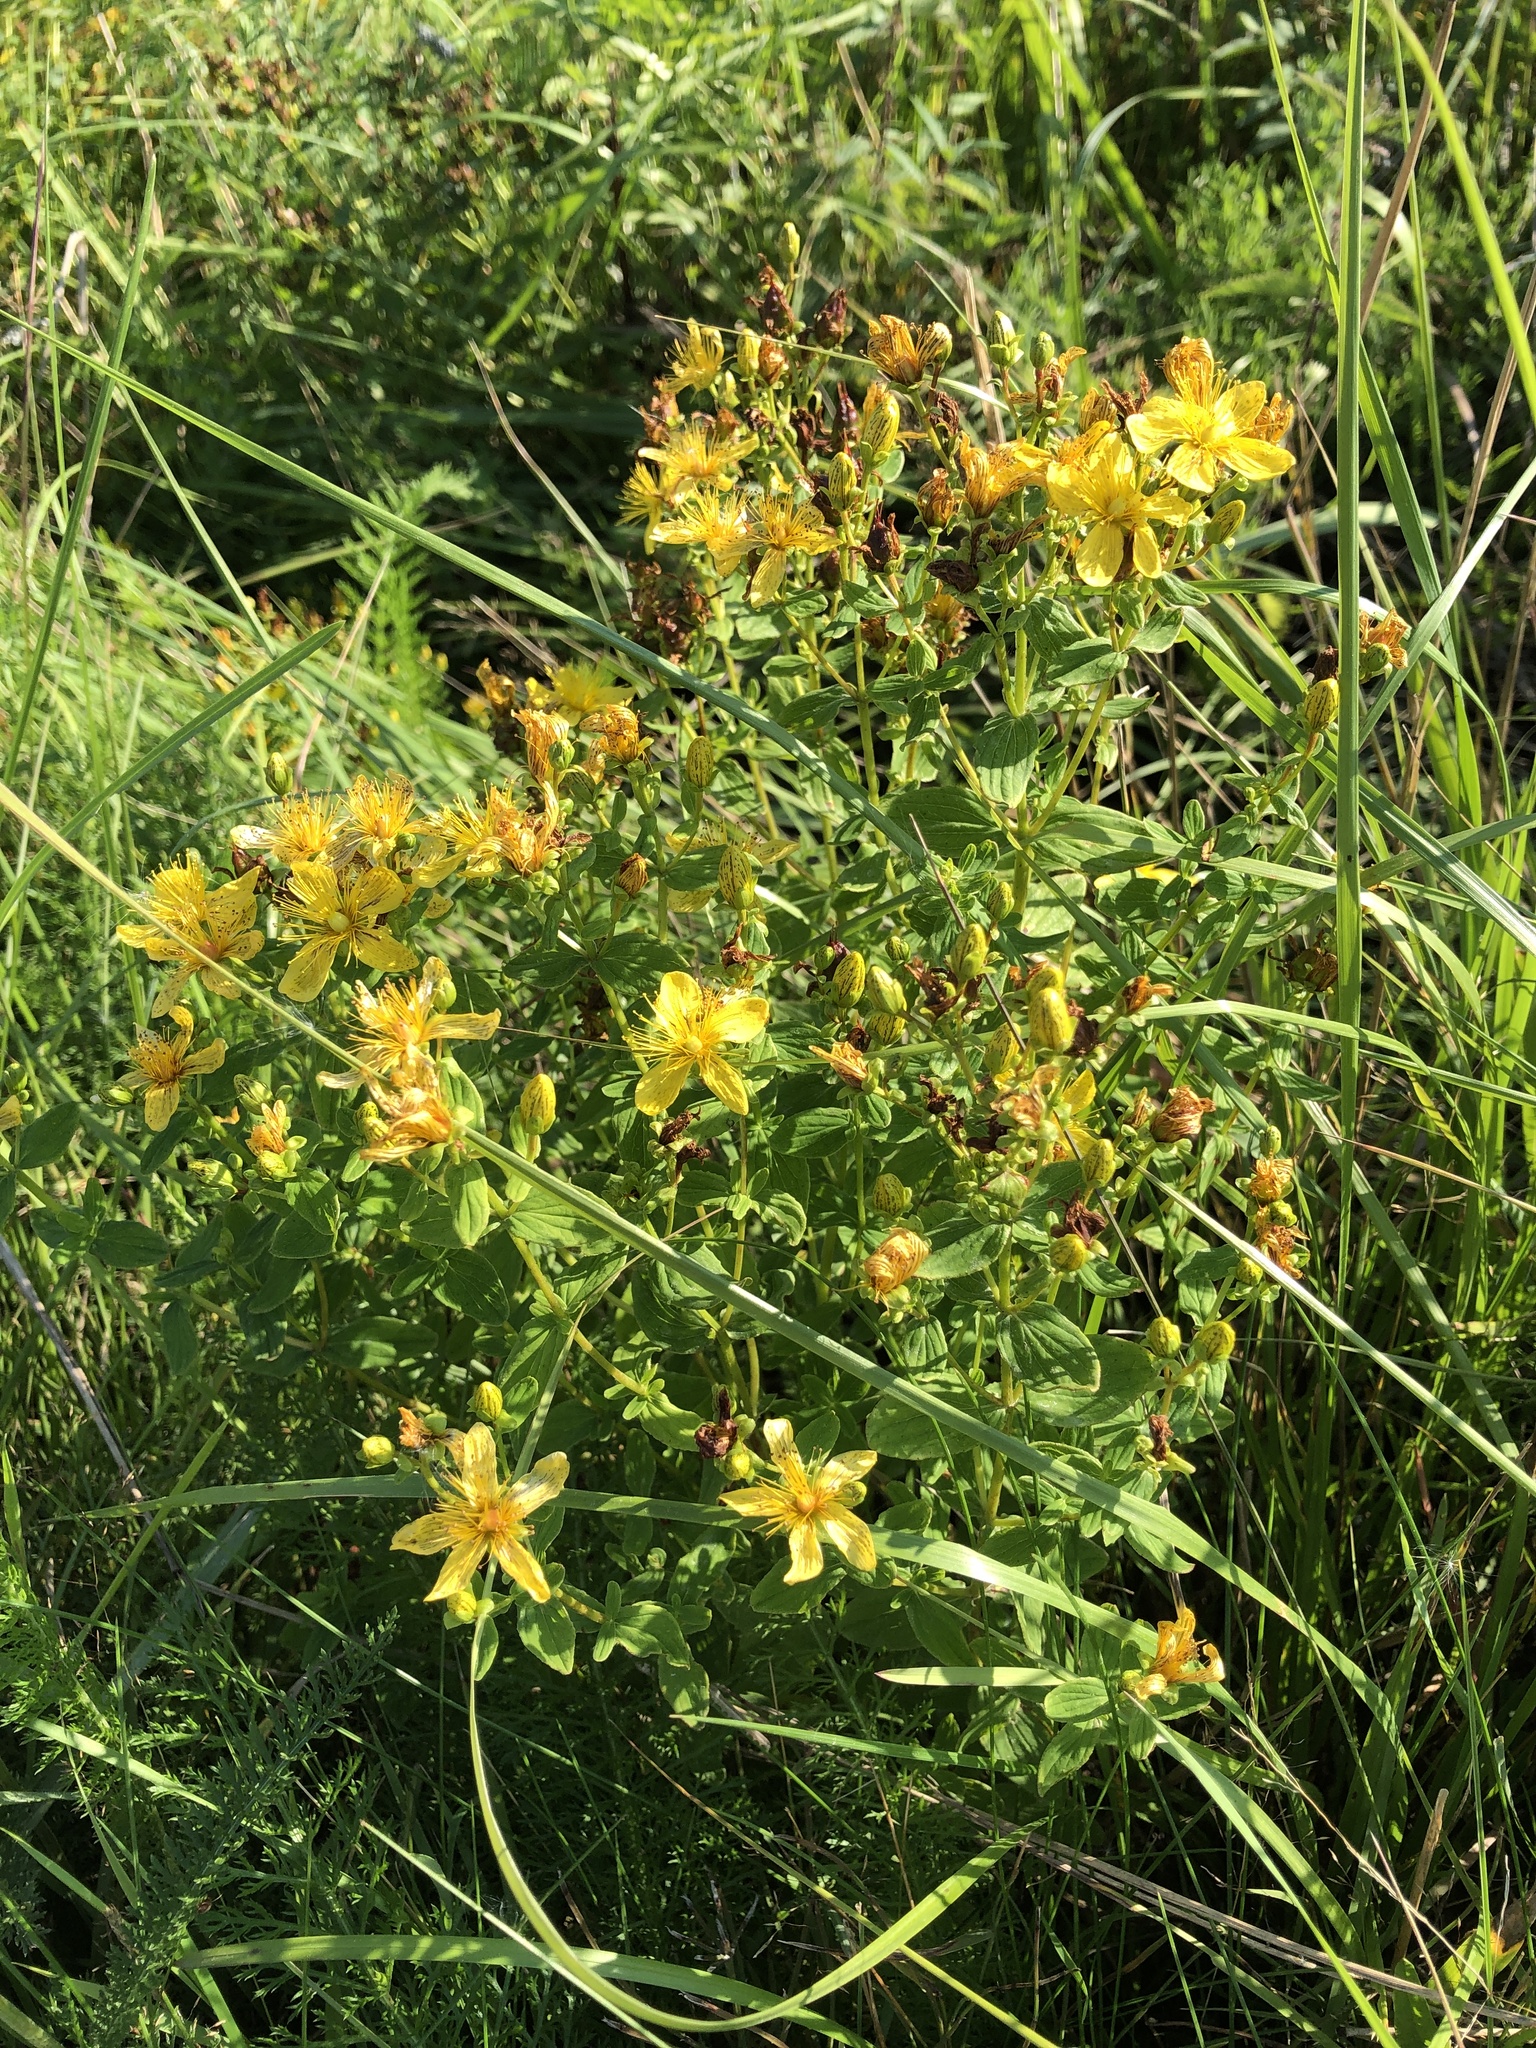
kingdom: Plantae
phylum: Tracheophyta
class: Magnoliopsida
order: Malpighiales
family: Hypericaceae
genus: Hypericum
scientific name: Hypericum maculatum
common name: Imperforate st. john's-wort
